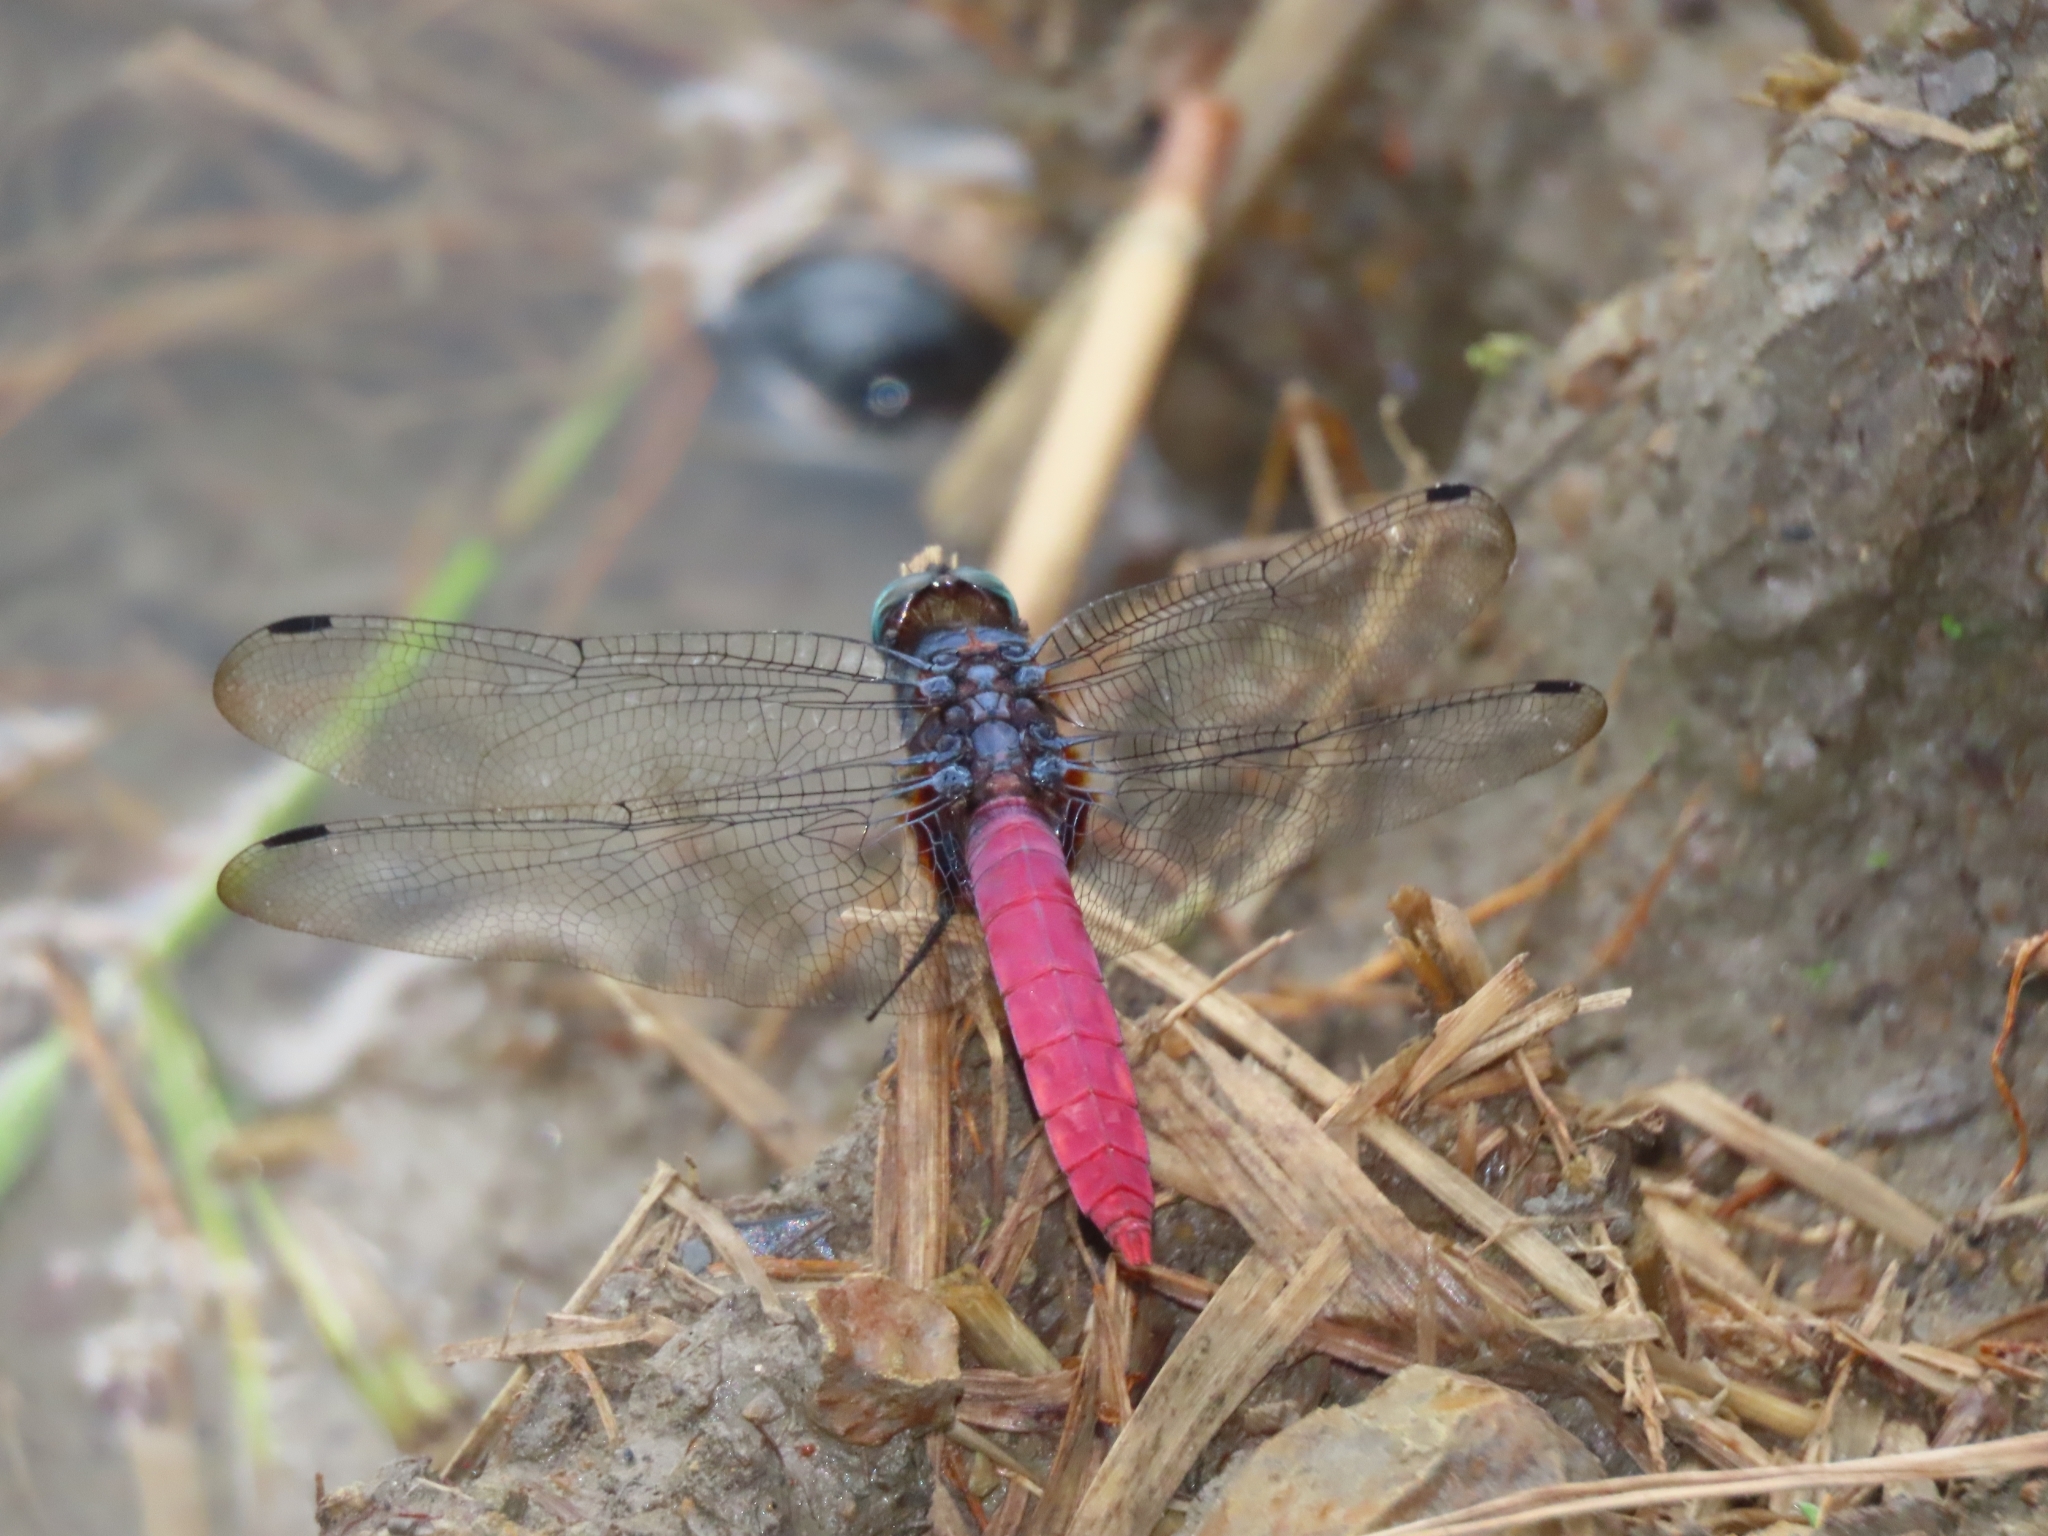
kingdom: Animalia
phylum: Arthropoda
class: Insecta
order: Odonata
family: Libellulidae
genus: Orthetrum
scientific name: Orthetrum pruinosum
